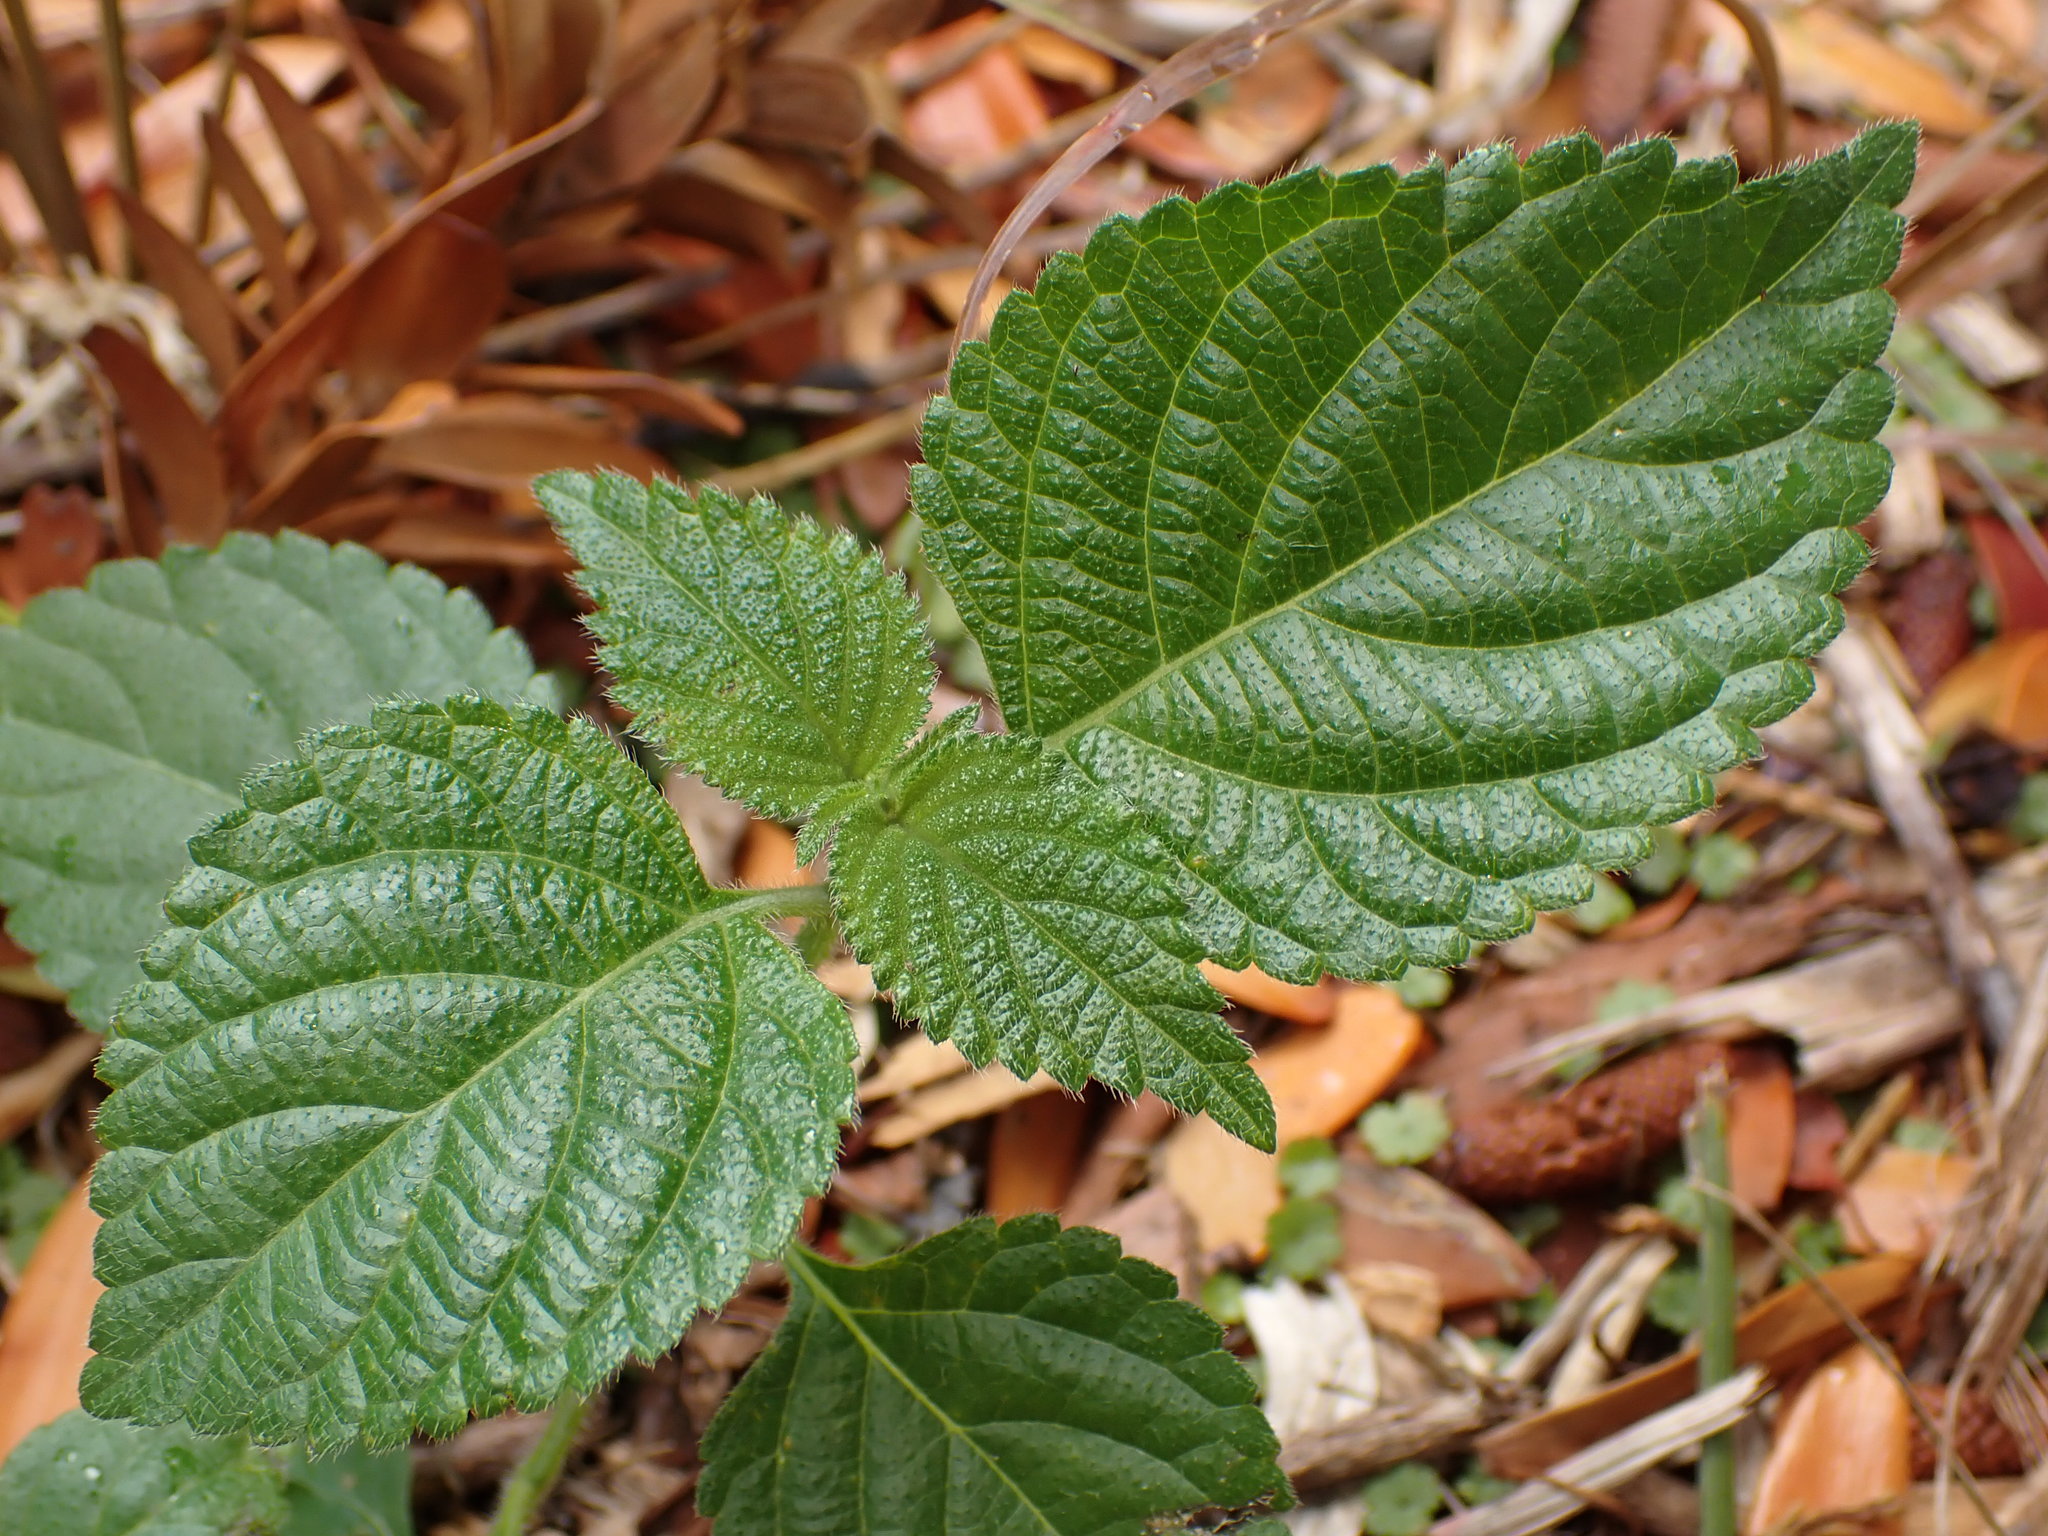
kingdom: Plantae
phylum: Tracheophyta
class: Magnoliopsida
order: Lamiales
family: Verbenaceae
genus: Lantana
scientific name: Lantana camara
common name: Lantana
